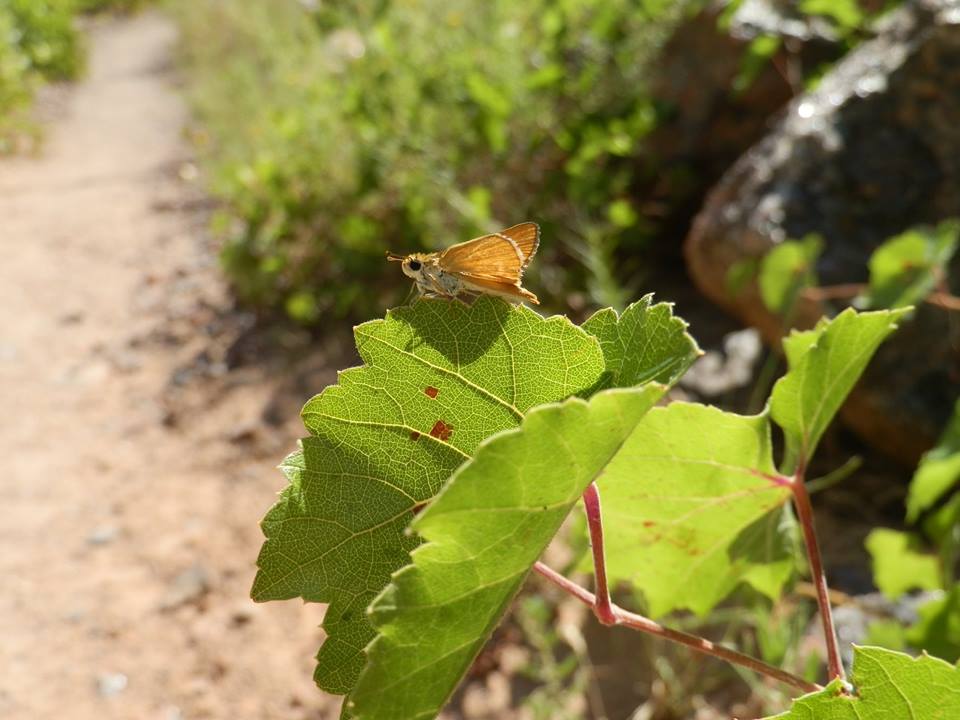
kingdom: Animalia
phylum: Arthropoda
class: Insecta
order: Lepidoptera
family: Hesperiidae
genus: Ochlodes
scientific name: Ochlodes sylvanoides
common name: Woodland skipper
